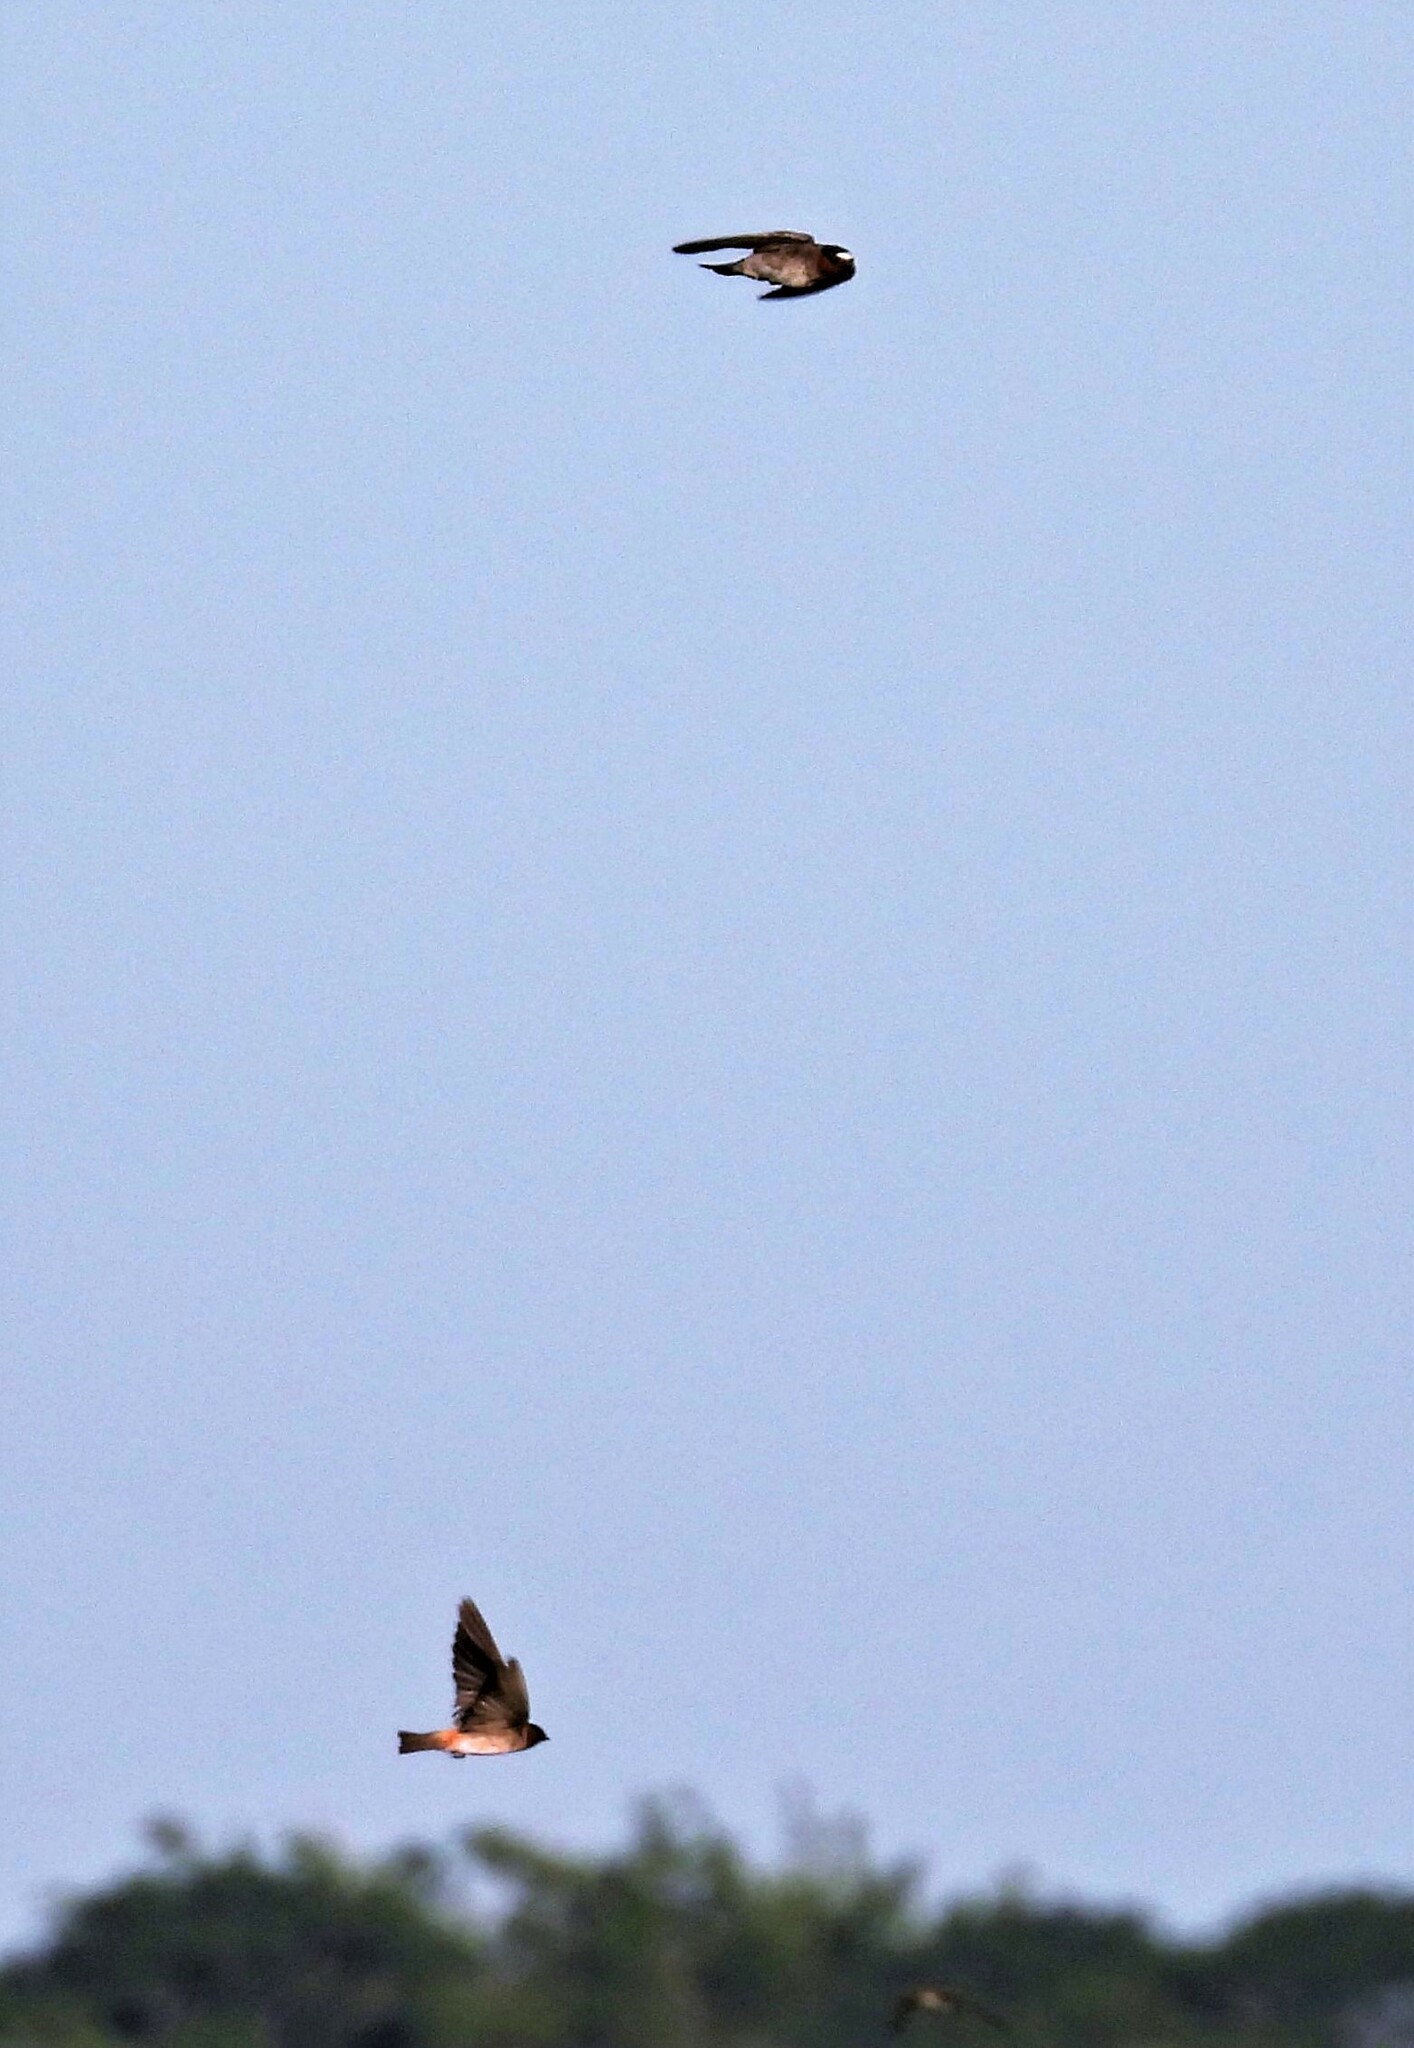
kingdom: Animalia
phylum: Chordata
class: Aves
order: Passeriformes
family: Hirundinidae
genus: Petrochelidon
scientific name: Petrochelidon pyrrhonota
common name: American cliff swallow
